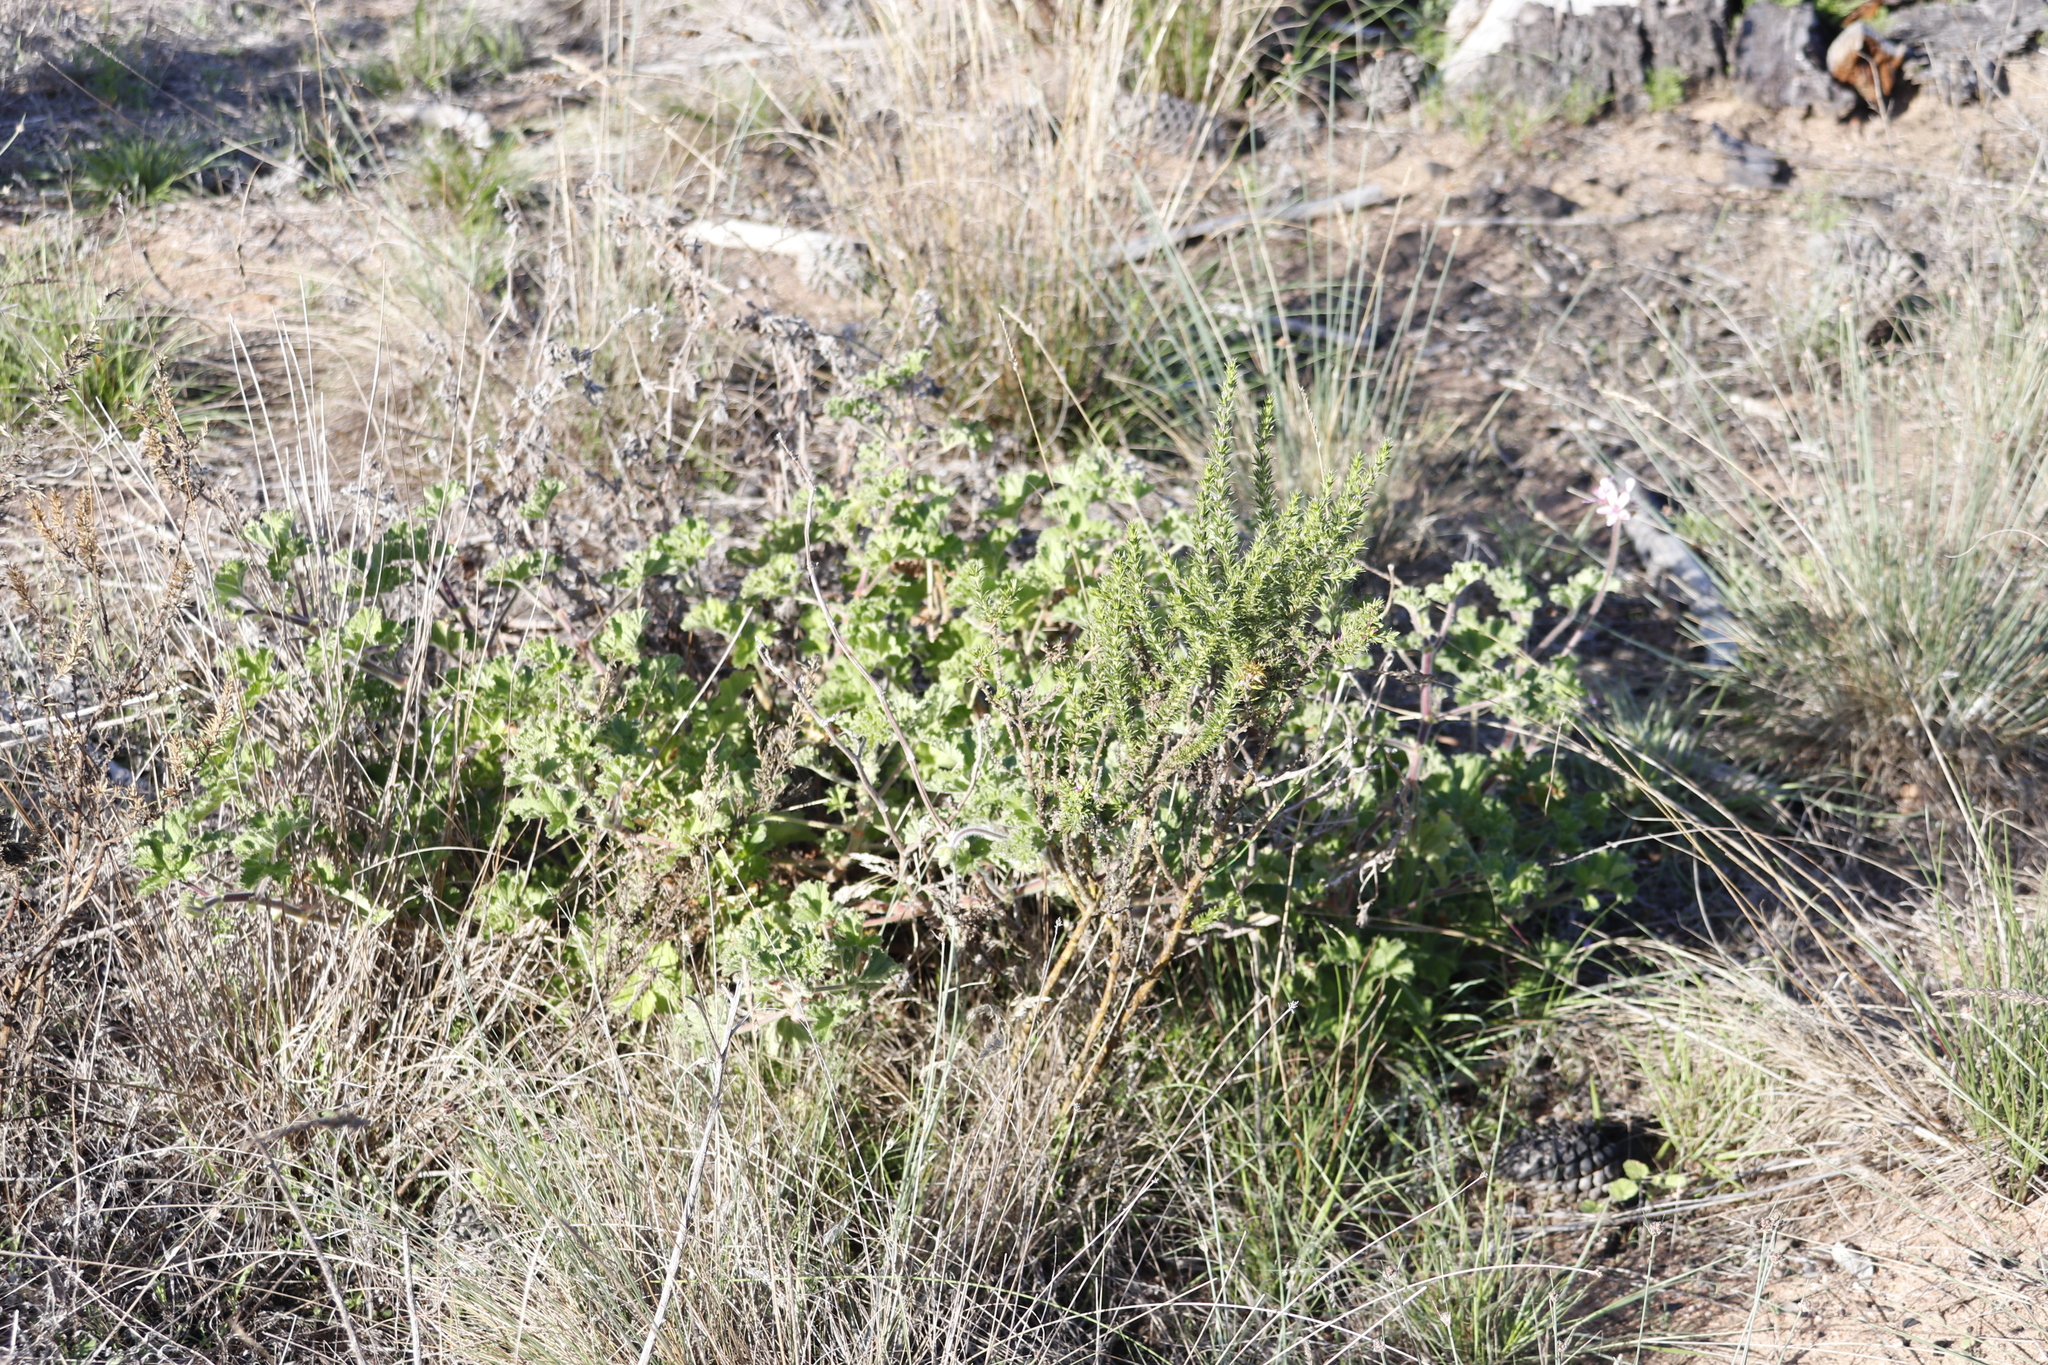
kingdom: Plantae
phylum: Tracheophyta
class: Magnoliopsida
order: Geraniales
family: Geraniaceae
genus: Pelargonium
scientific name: Pelargonium capitatum
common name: Rose scented geranium
